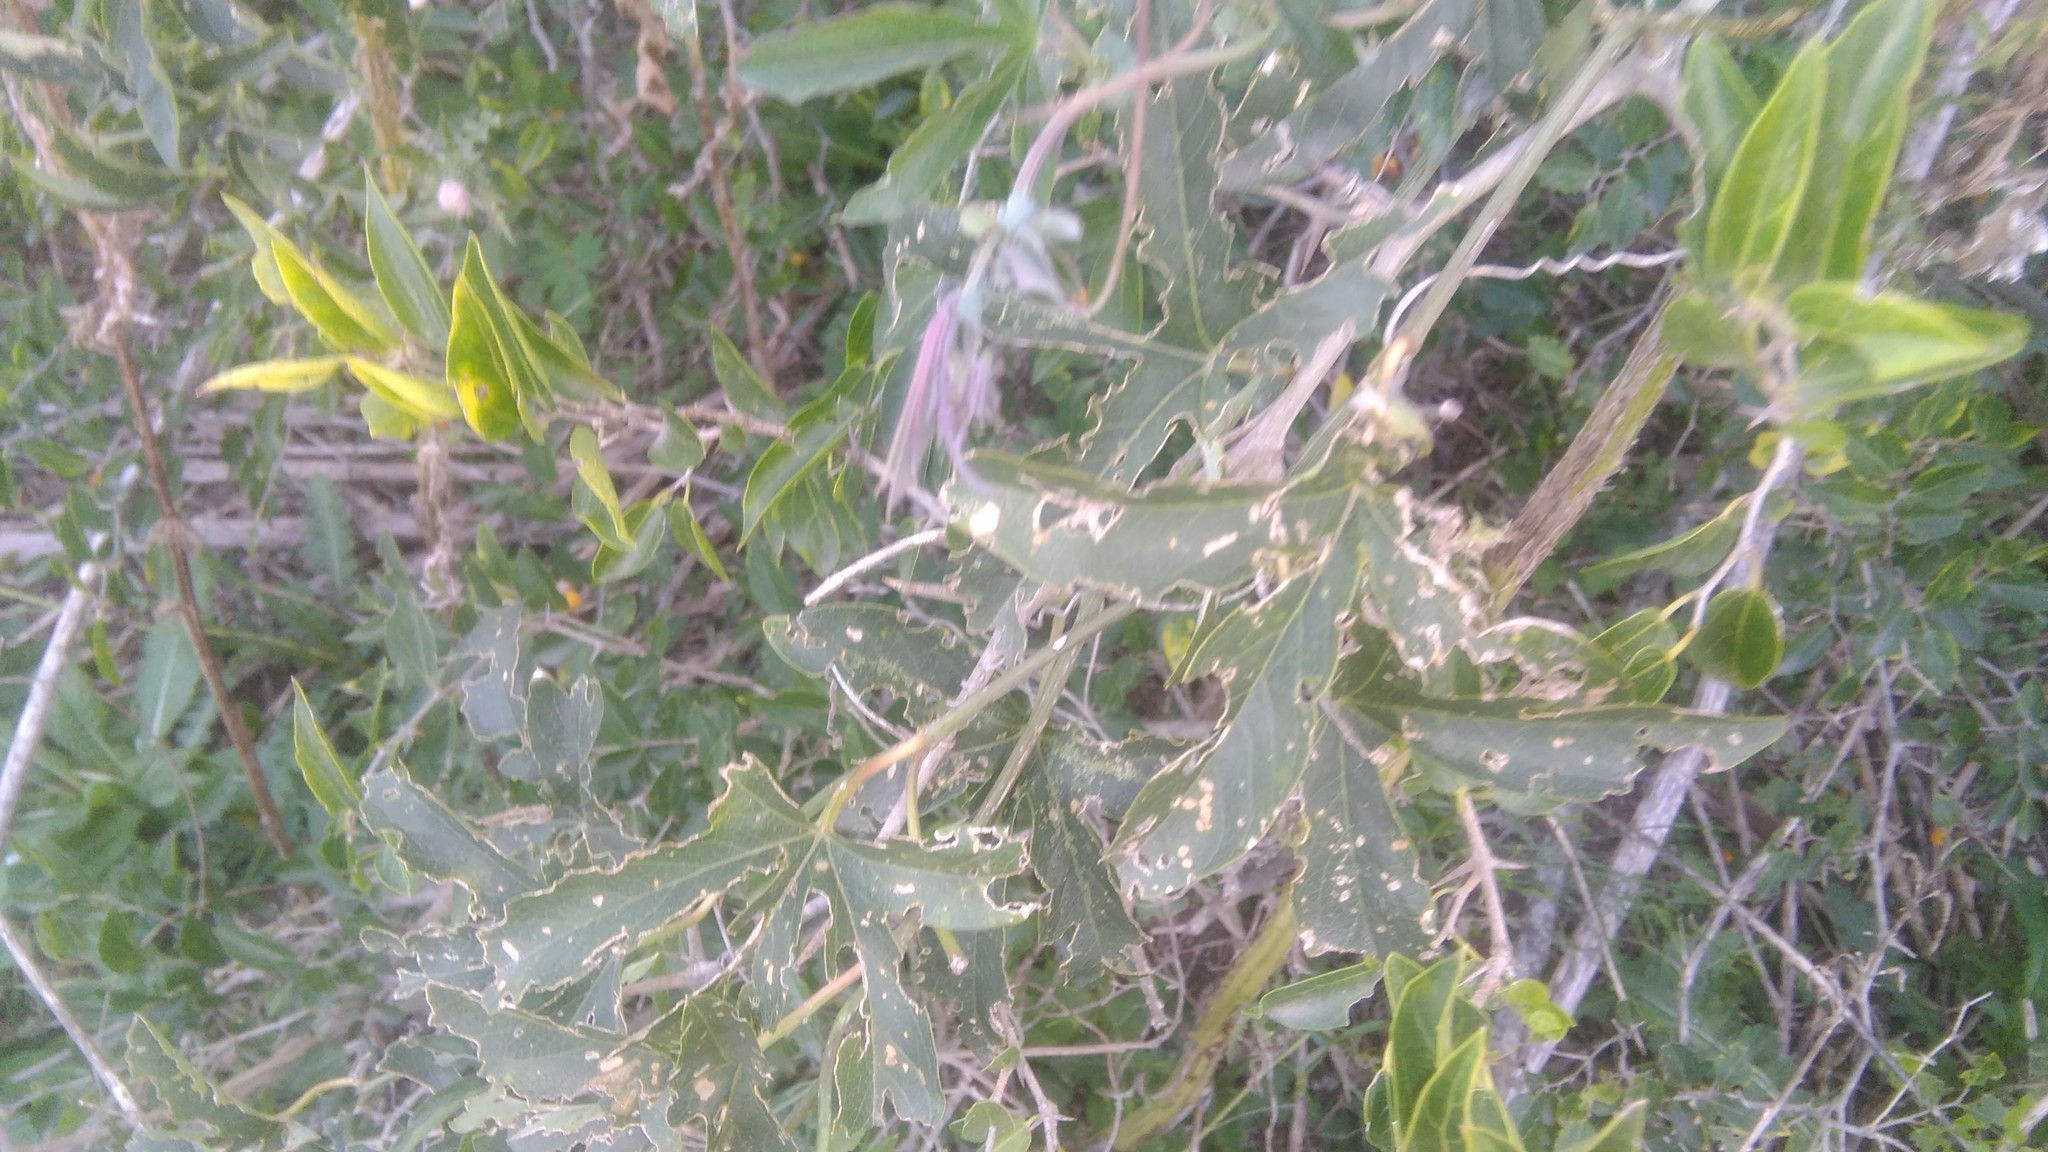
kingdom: Plantae
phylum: Tracheophyta
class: Magnoliopsida
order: Malpighiales
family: Passifloraceae
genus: Passiflora
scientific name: Passiflora caerulea
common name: Blue passionflower
